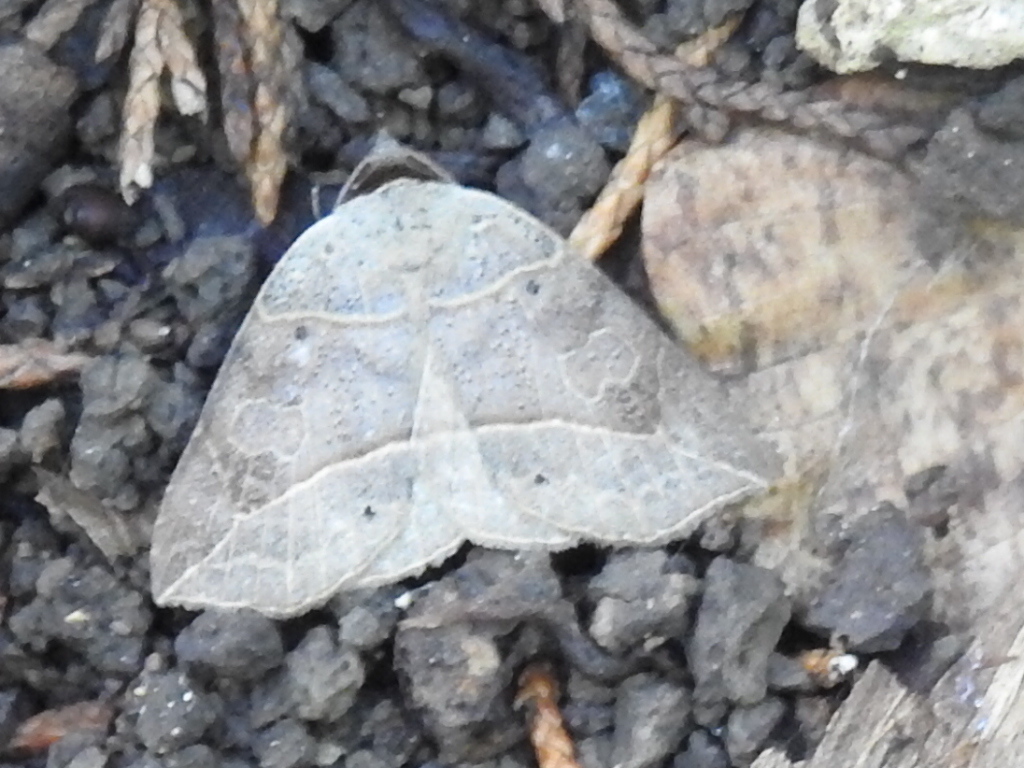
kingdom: Animalia
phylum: Arthropoda
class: Insecta
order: Lepidoptera
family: Erebidae
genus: Isogona
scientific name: Isogona tenuis
